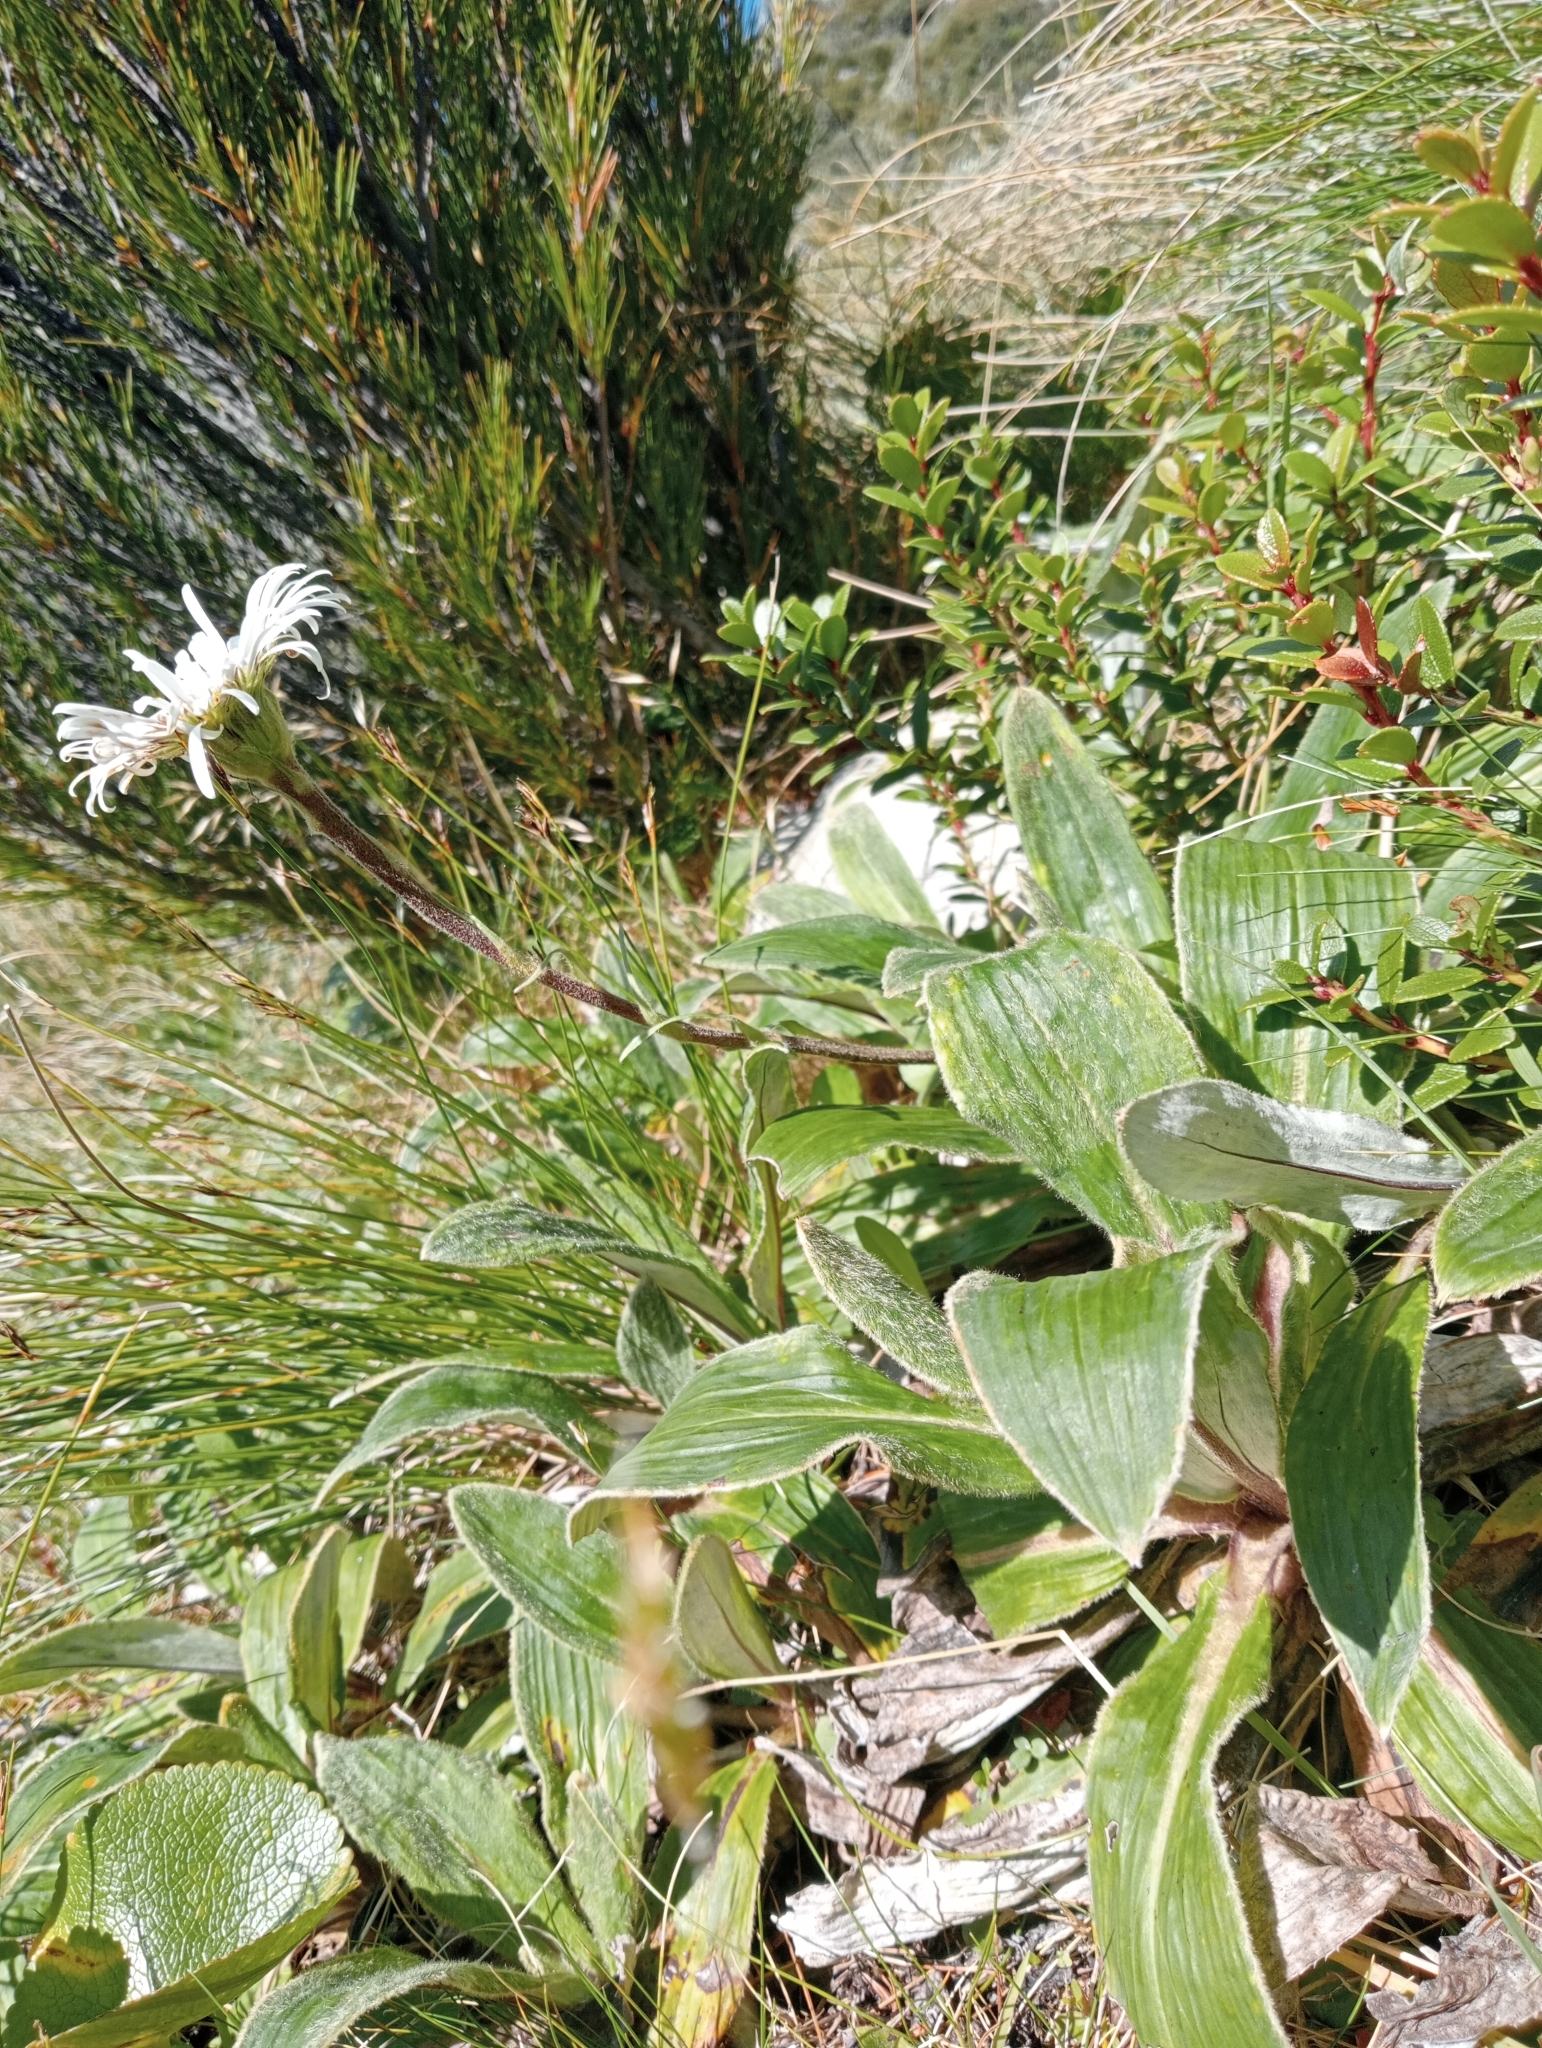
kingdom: Plantae
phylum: Tracheophyta
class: Magnoliopsida
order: Asterales
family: Asteraceae
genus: Celmisia
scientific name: Celmisia verbascifolia
